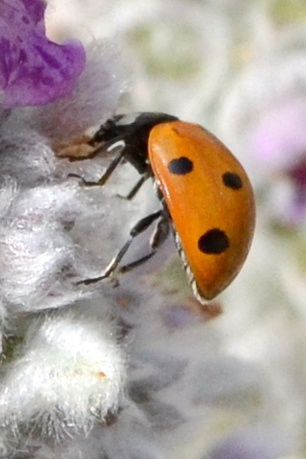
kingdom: Animalia
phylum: Arthropoda
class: Insecta
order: Coleoptera
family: Coccinellidae
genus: Coccinella
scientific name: Coccinella septempunctata
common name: Sevenspotted lady beetle
